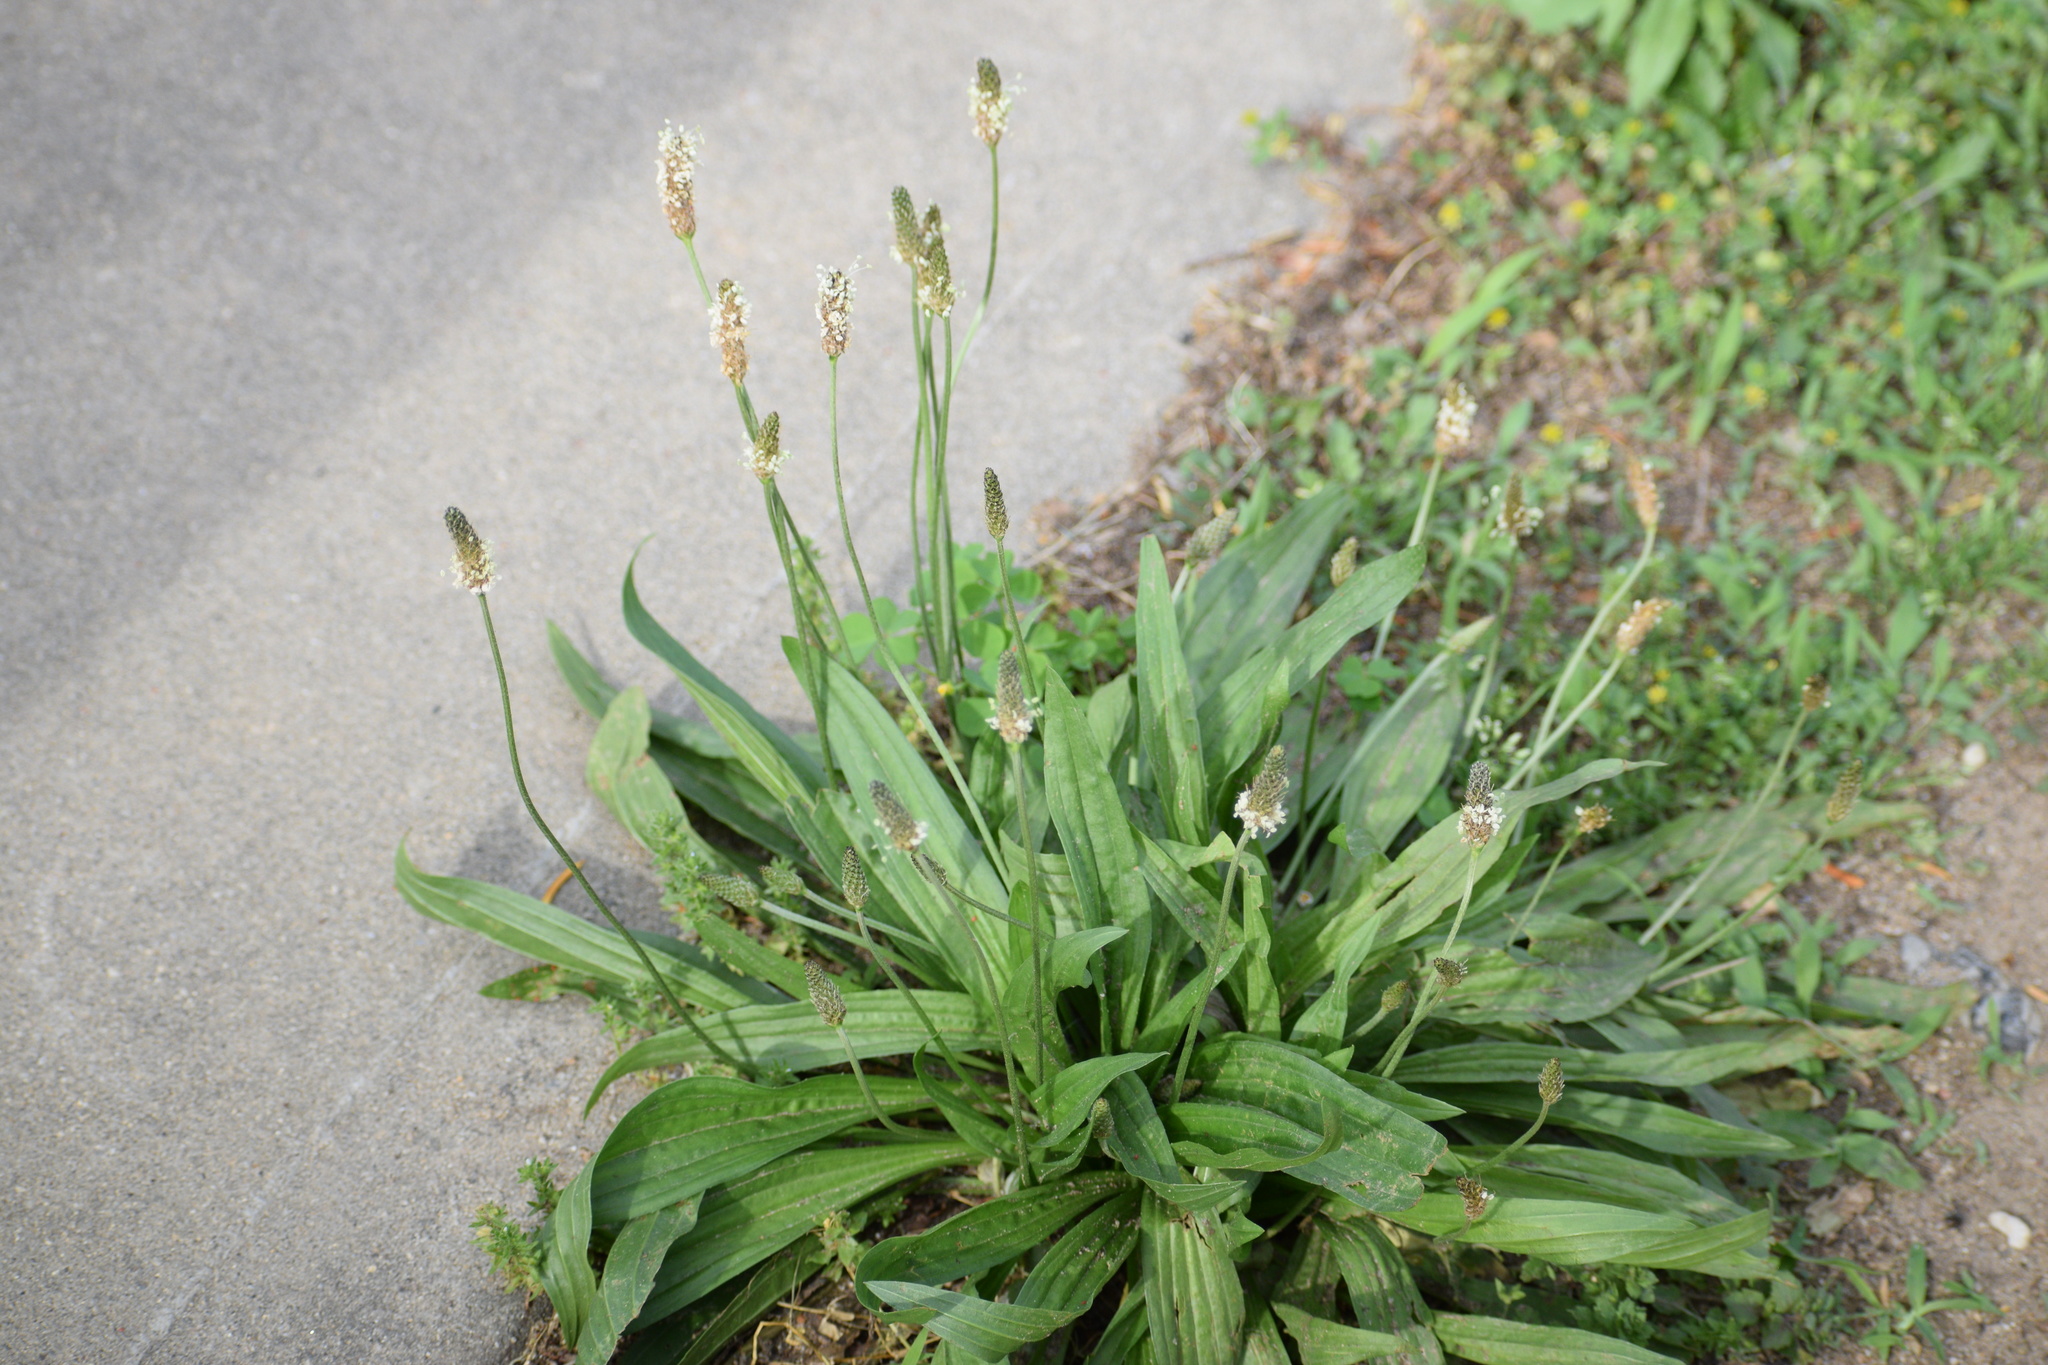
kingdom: Plantae
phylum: Tracheophyta
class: Magnoliopsida
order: Lamiales
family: Plantaginaceae
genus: Plantago
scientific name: Plantago lanceolata
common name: Ribwort plantain
